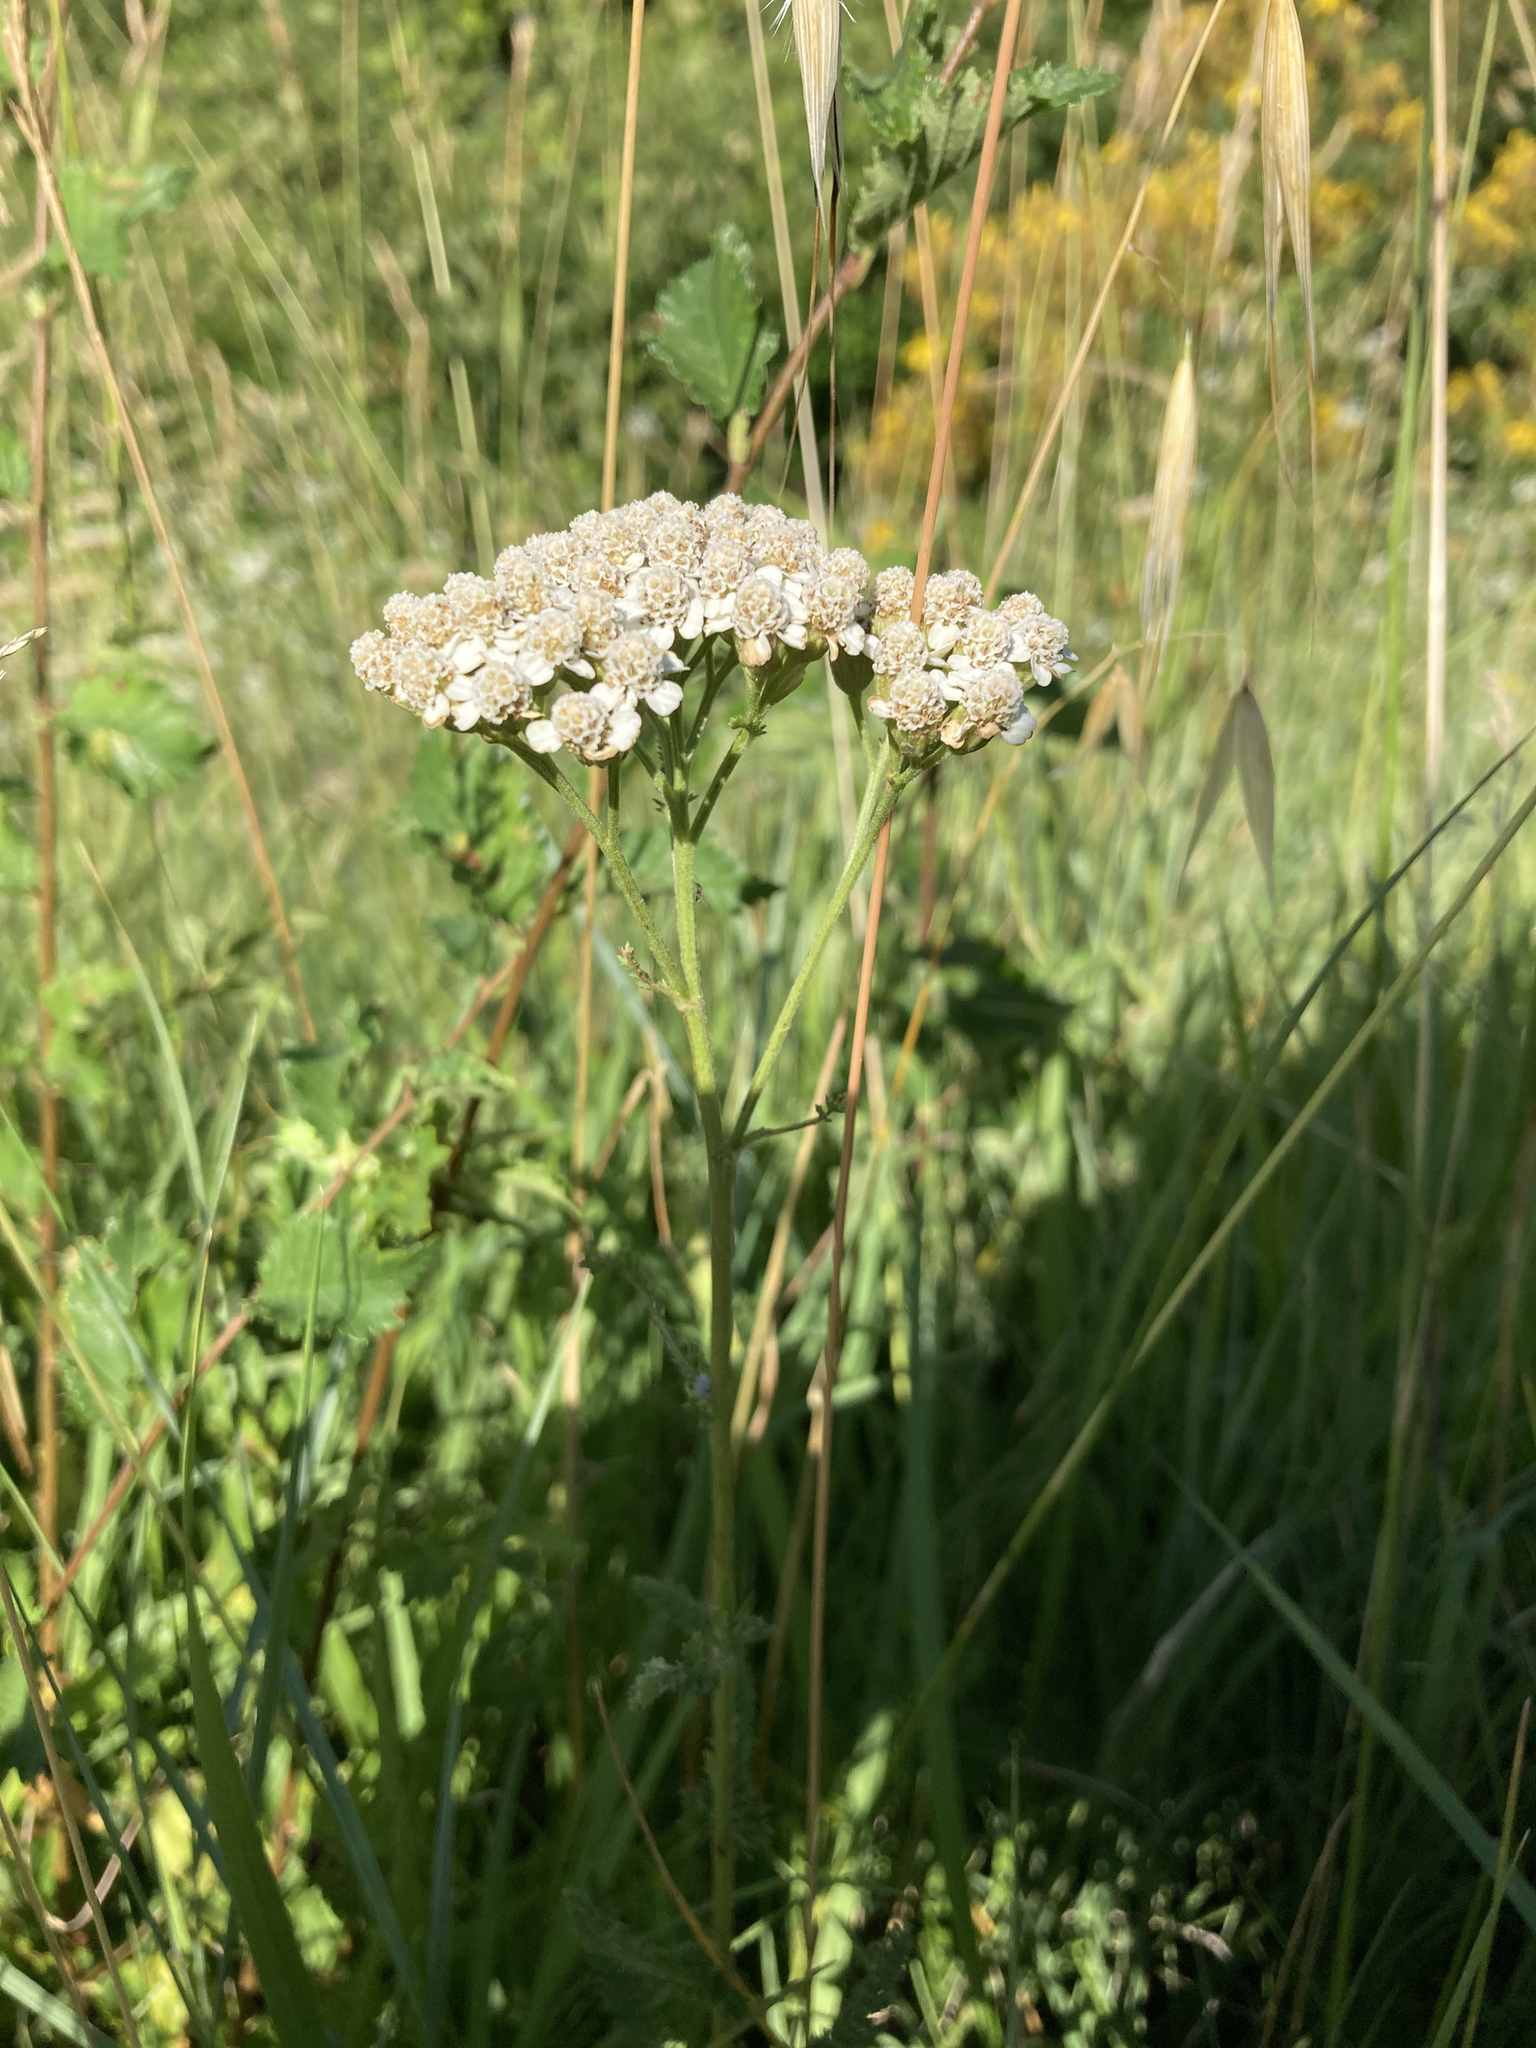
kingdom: Plantae
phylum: Tracheophyta
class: Magnoliopsida
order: Asterales
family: Asteraceae
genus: Achillea
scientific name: Achillea millefolium
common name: Yarrow
